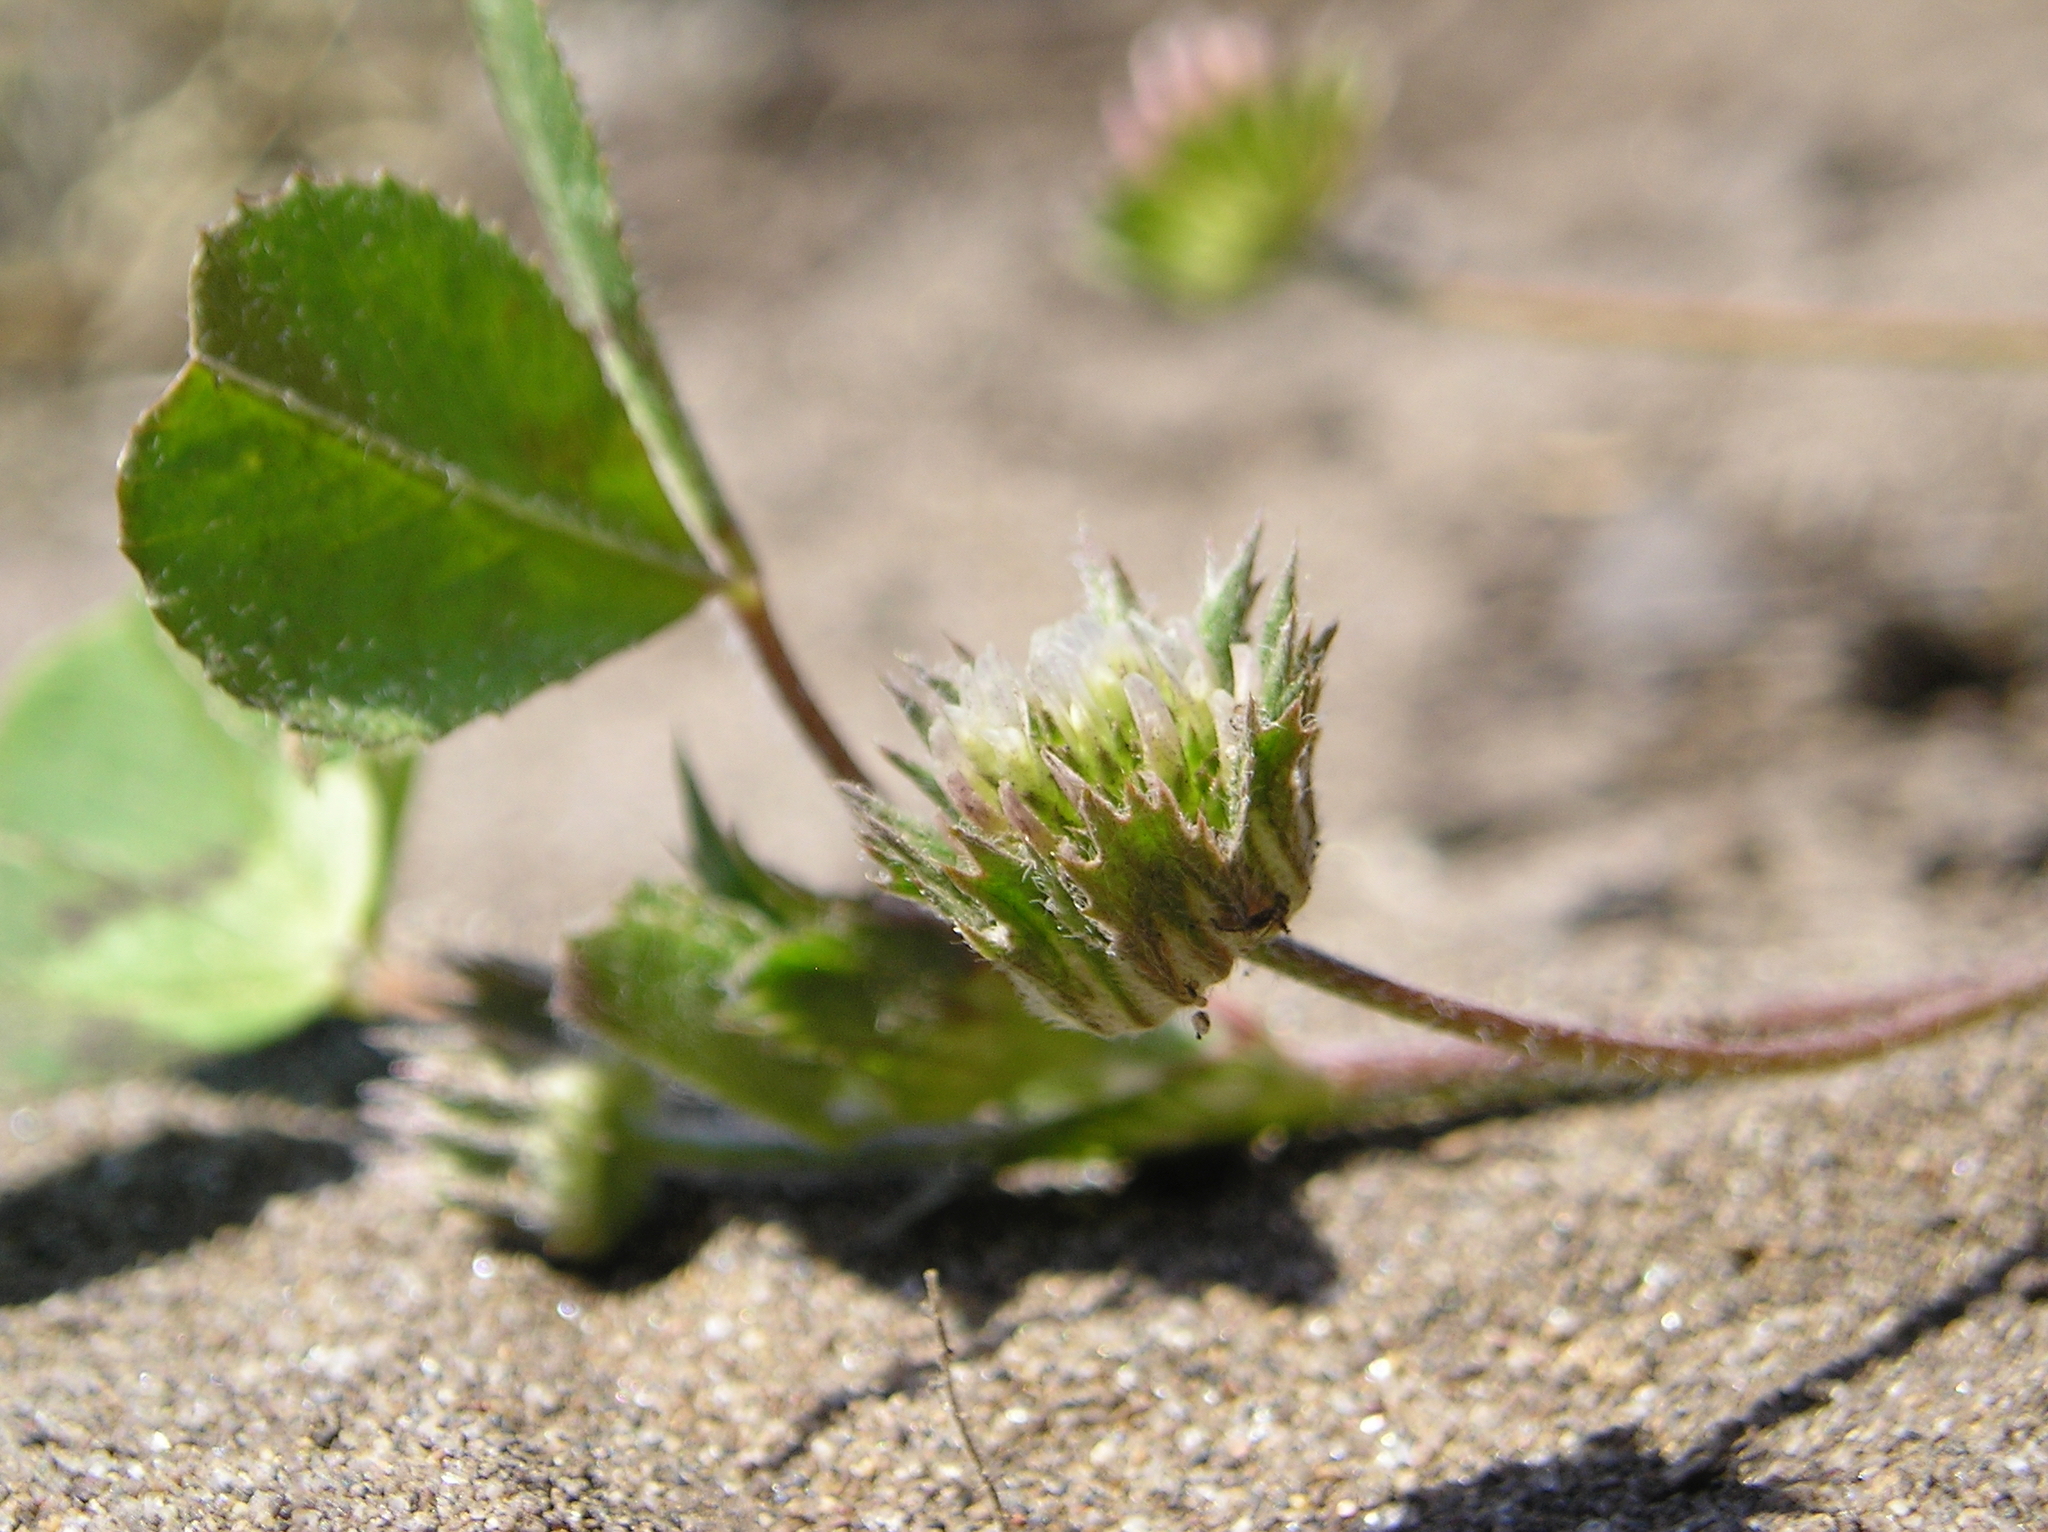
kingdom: Plantae
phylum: Tracheophyta
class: Magnoliopsida
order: Fabales
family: Fabaceae
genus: Trifolium
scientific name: Trifolium microdon
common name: Thimble clover
